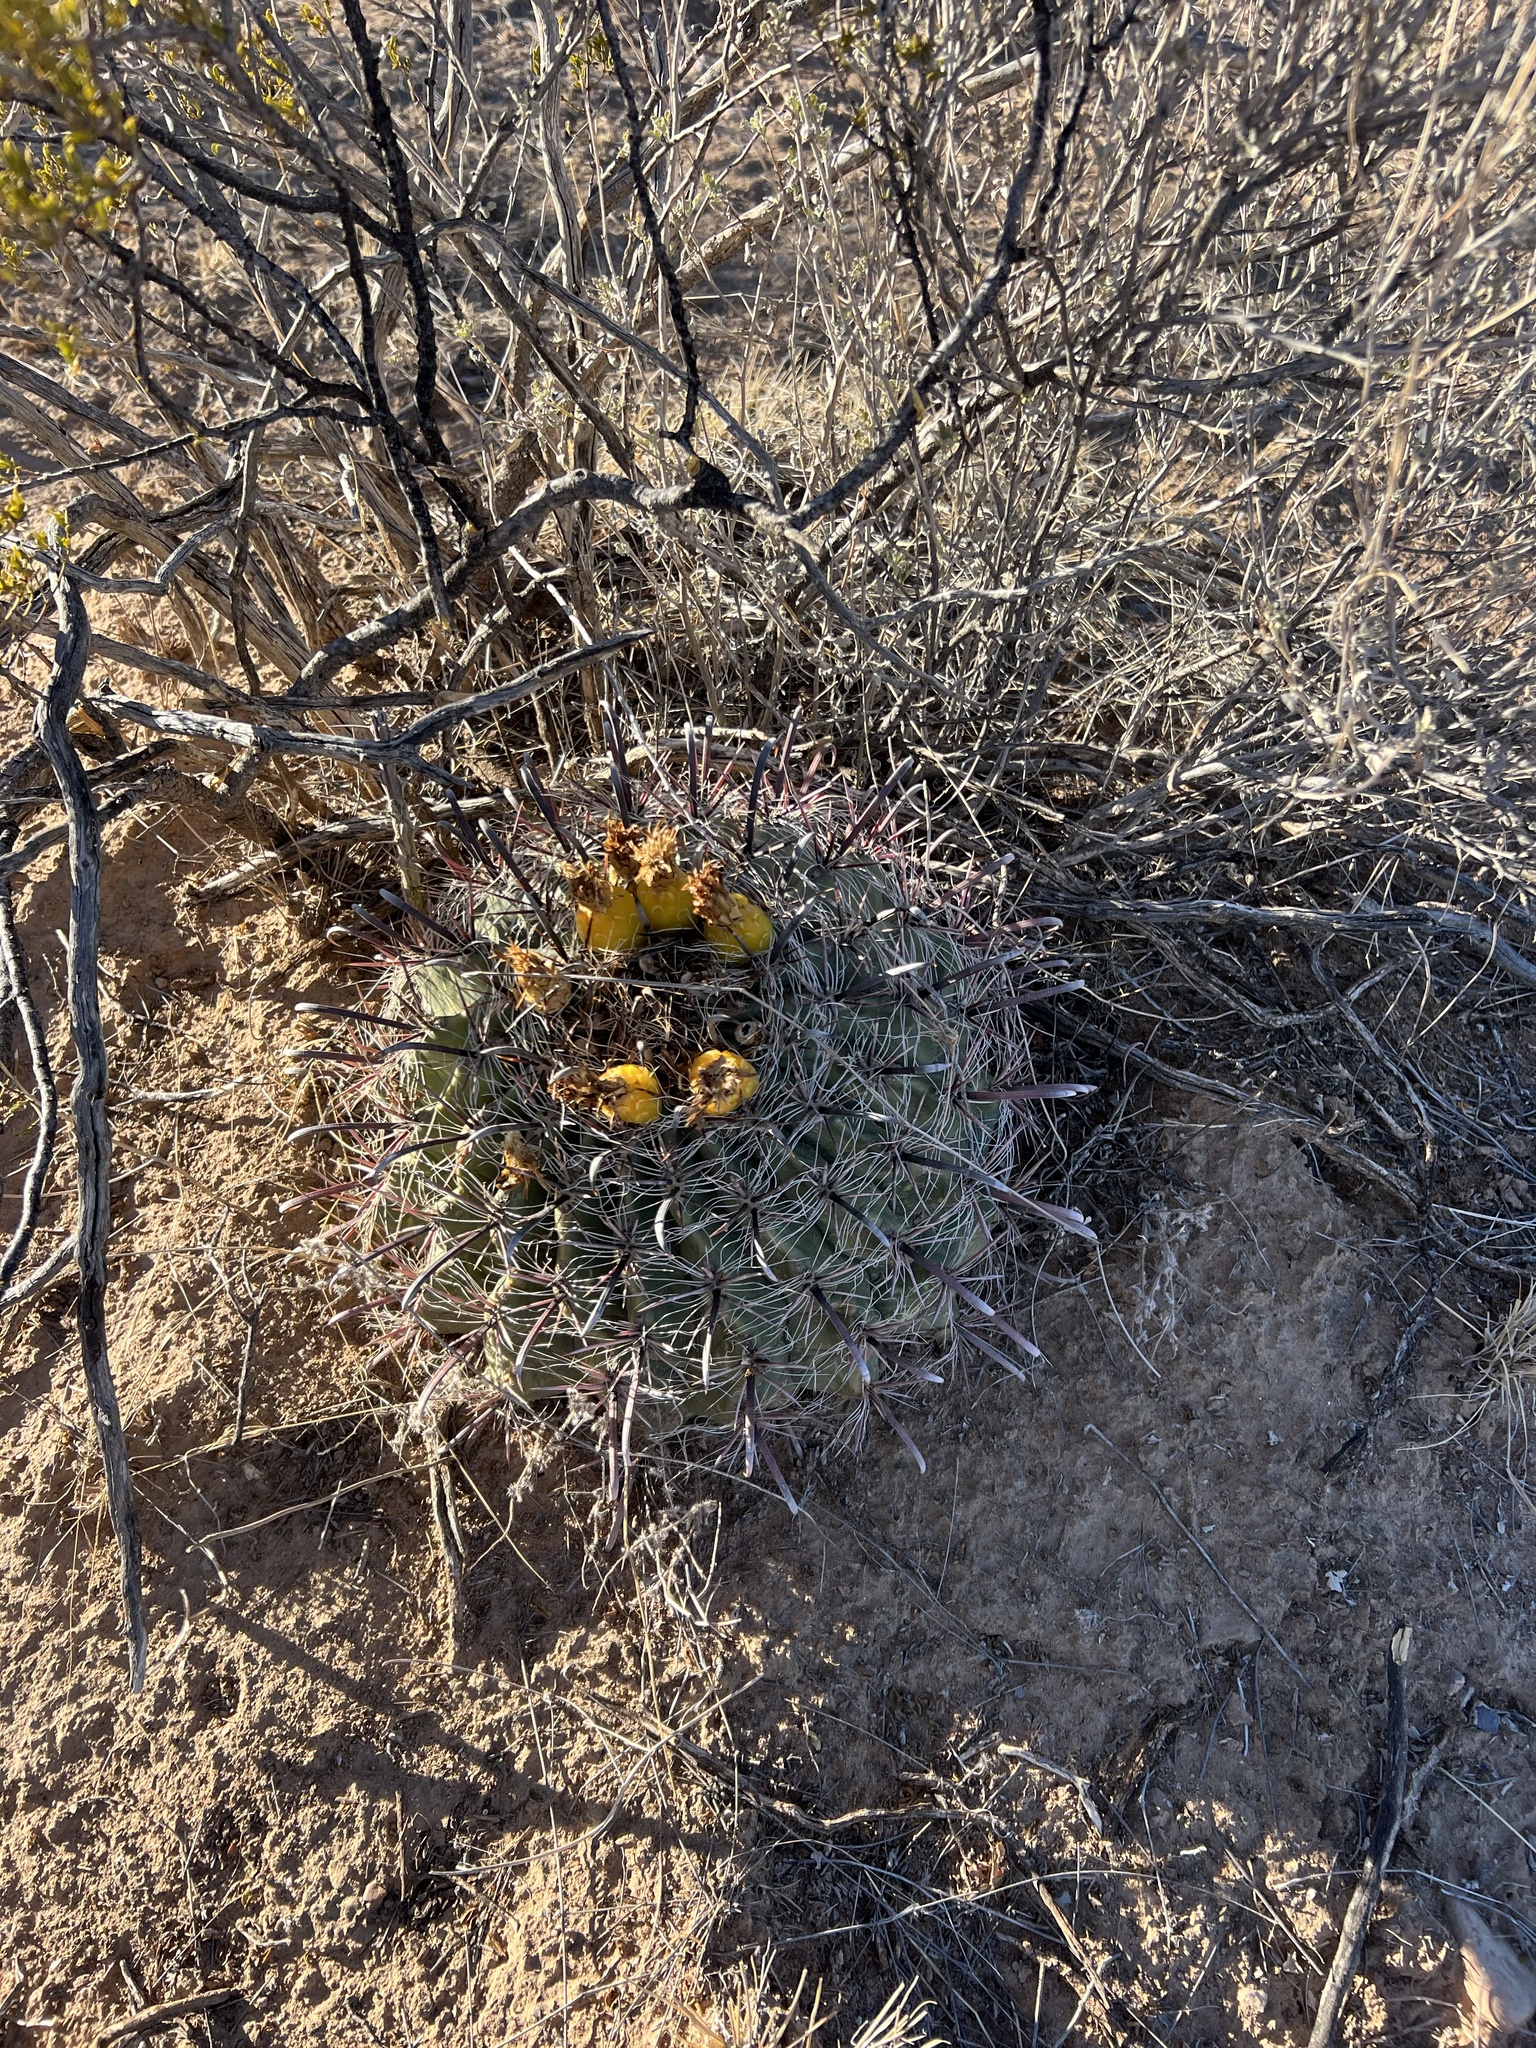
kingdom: Plantae
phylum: Tracheophyta
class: Magnoliopsida
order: Caryophyllales
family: Cactaceae
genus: Ferocactus
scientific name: Ferocactus wislizeni
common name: Candy barrel cactus
